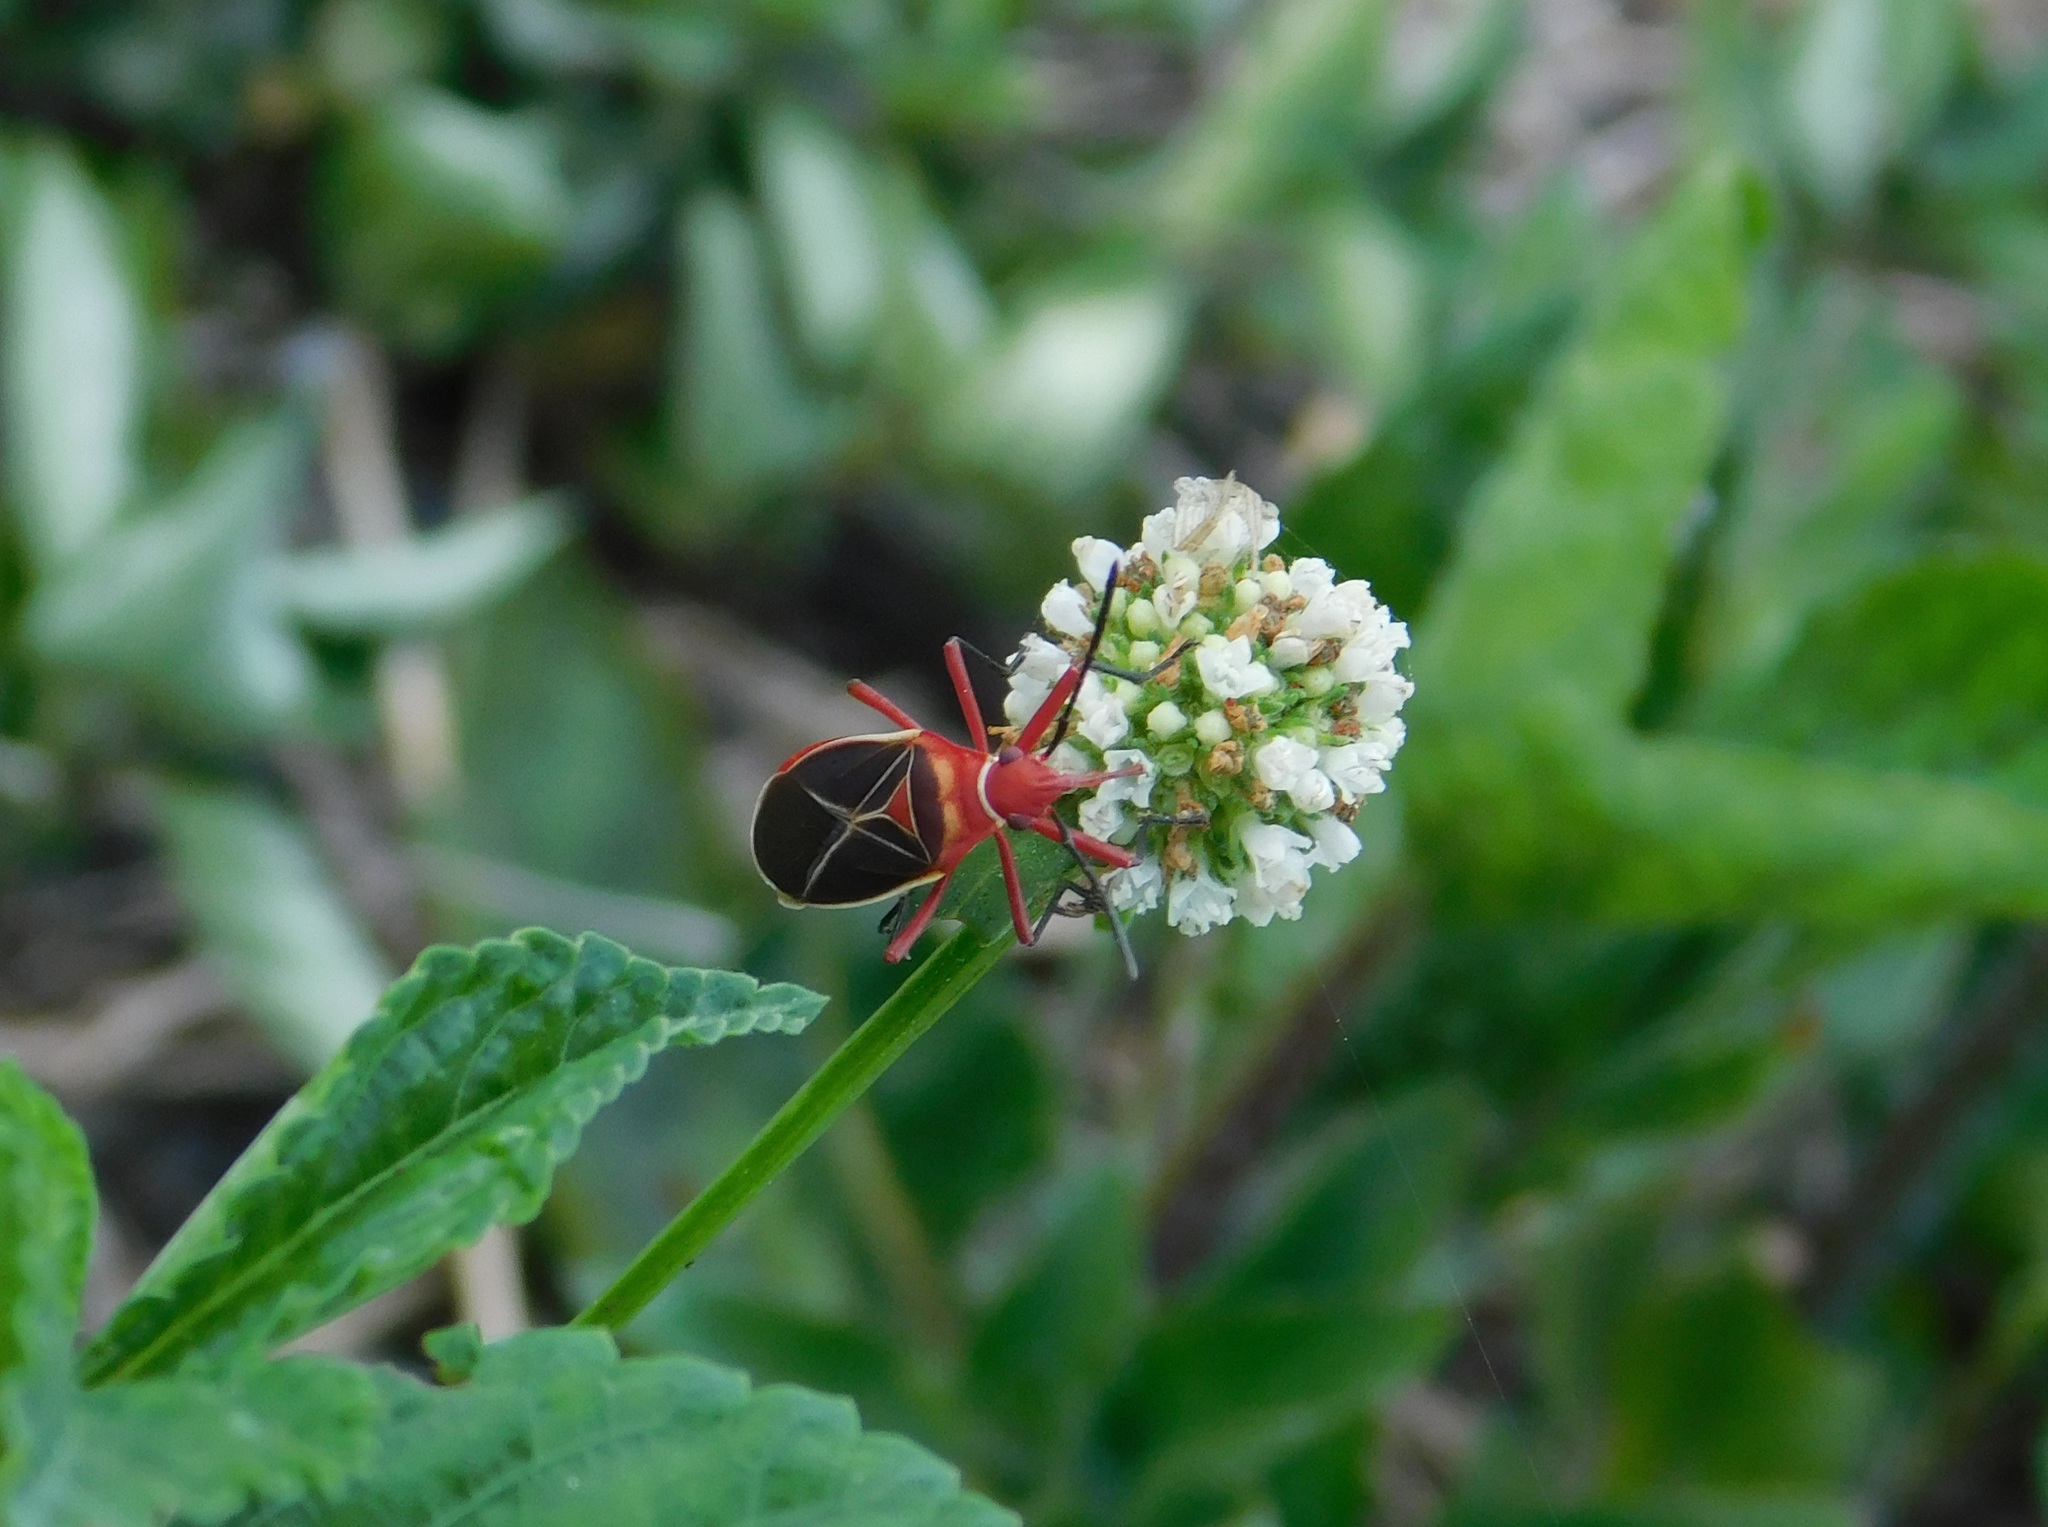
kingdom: Animalia
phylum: Arthropoda
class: Insecta
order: Hemiptera
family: Pyrrhocoridae
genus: Dysdercus
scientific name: Dysdercus suturellus
